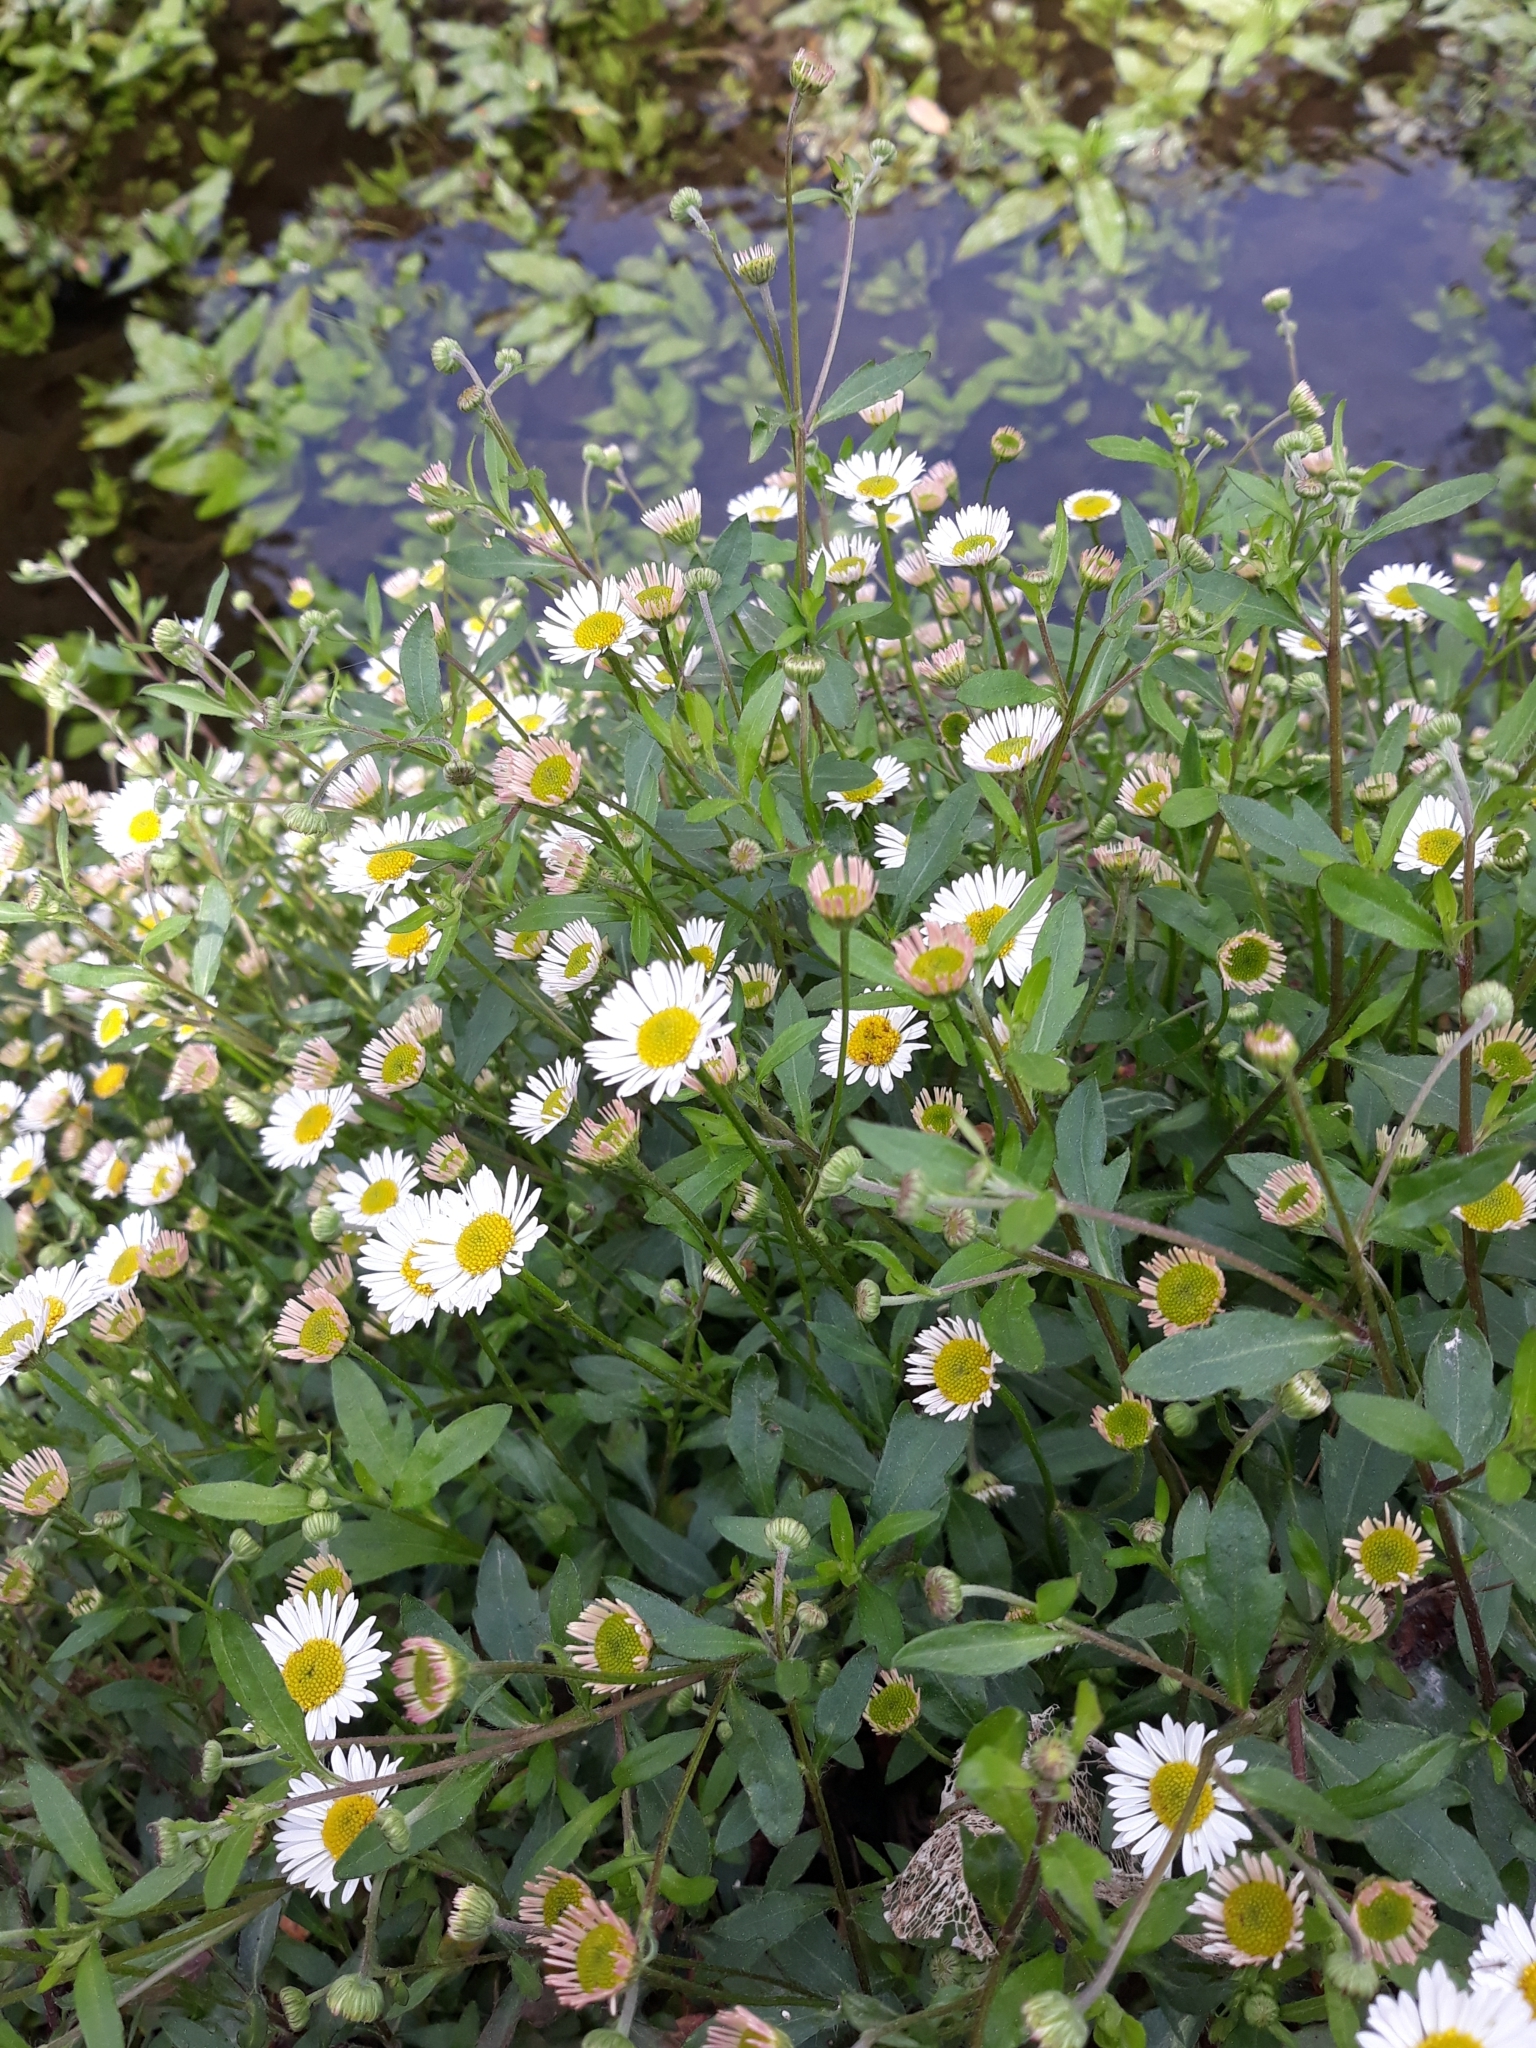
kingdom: Plantae
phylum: Tracheophyta
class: Magnoliopsida
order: Asterales
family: Asteraceae
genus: Erigeron
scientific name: Erigeron karvinskianus
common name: Mexican fleabane
